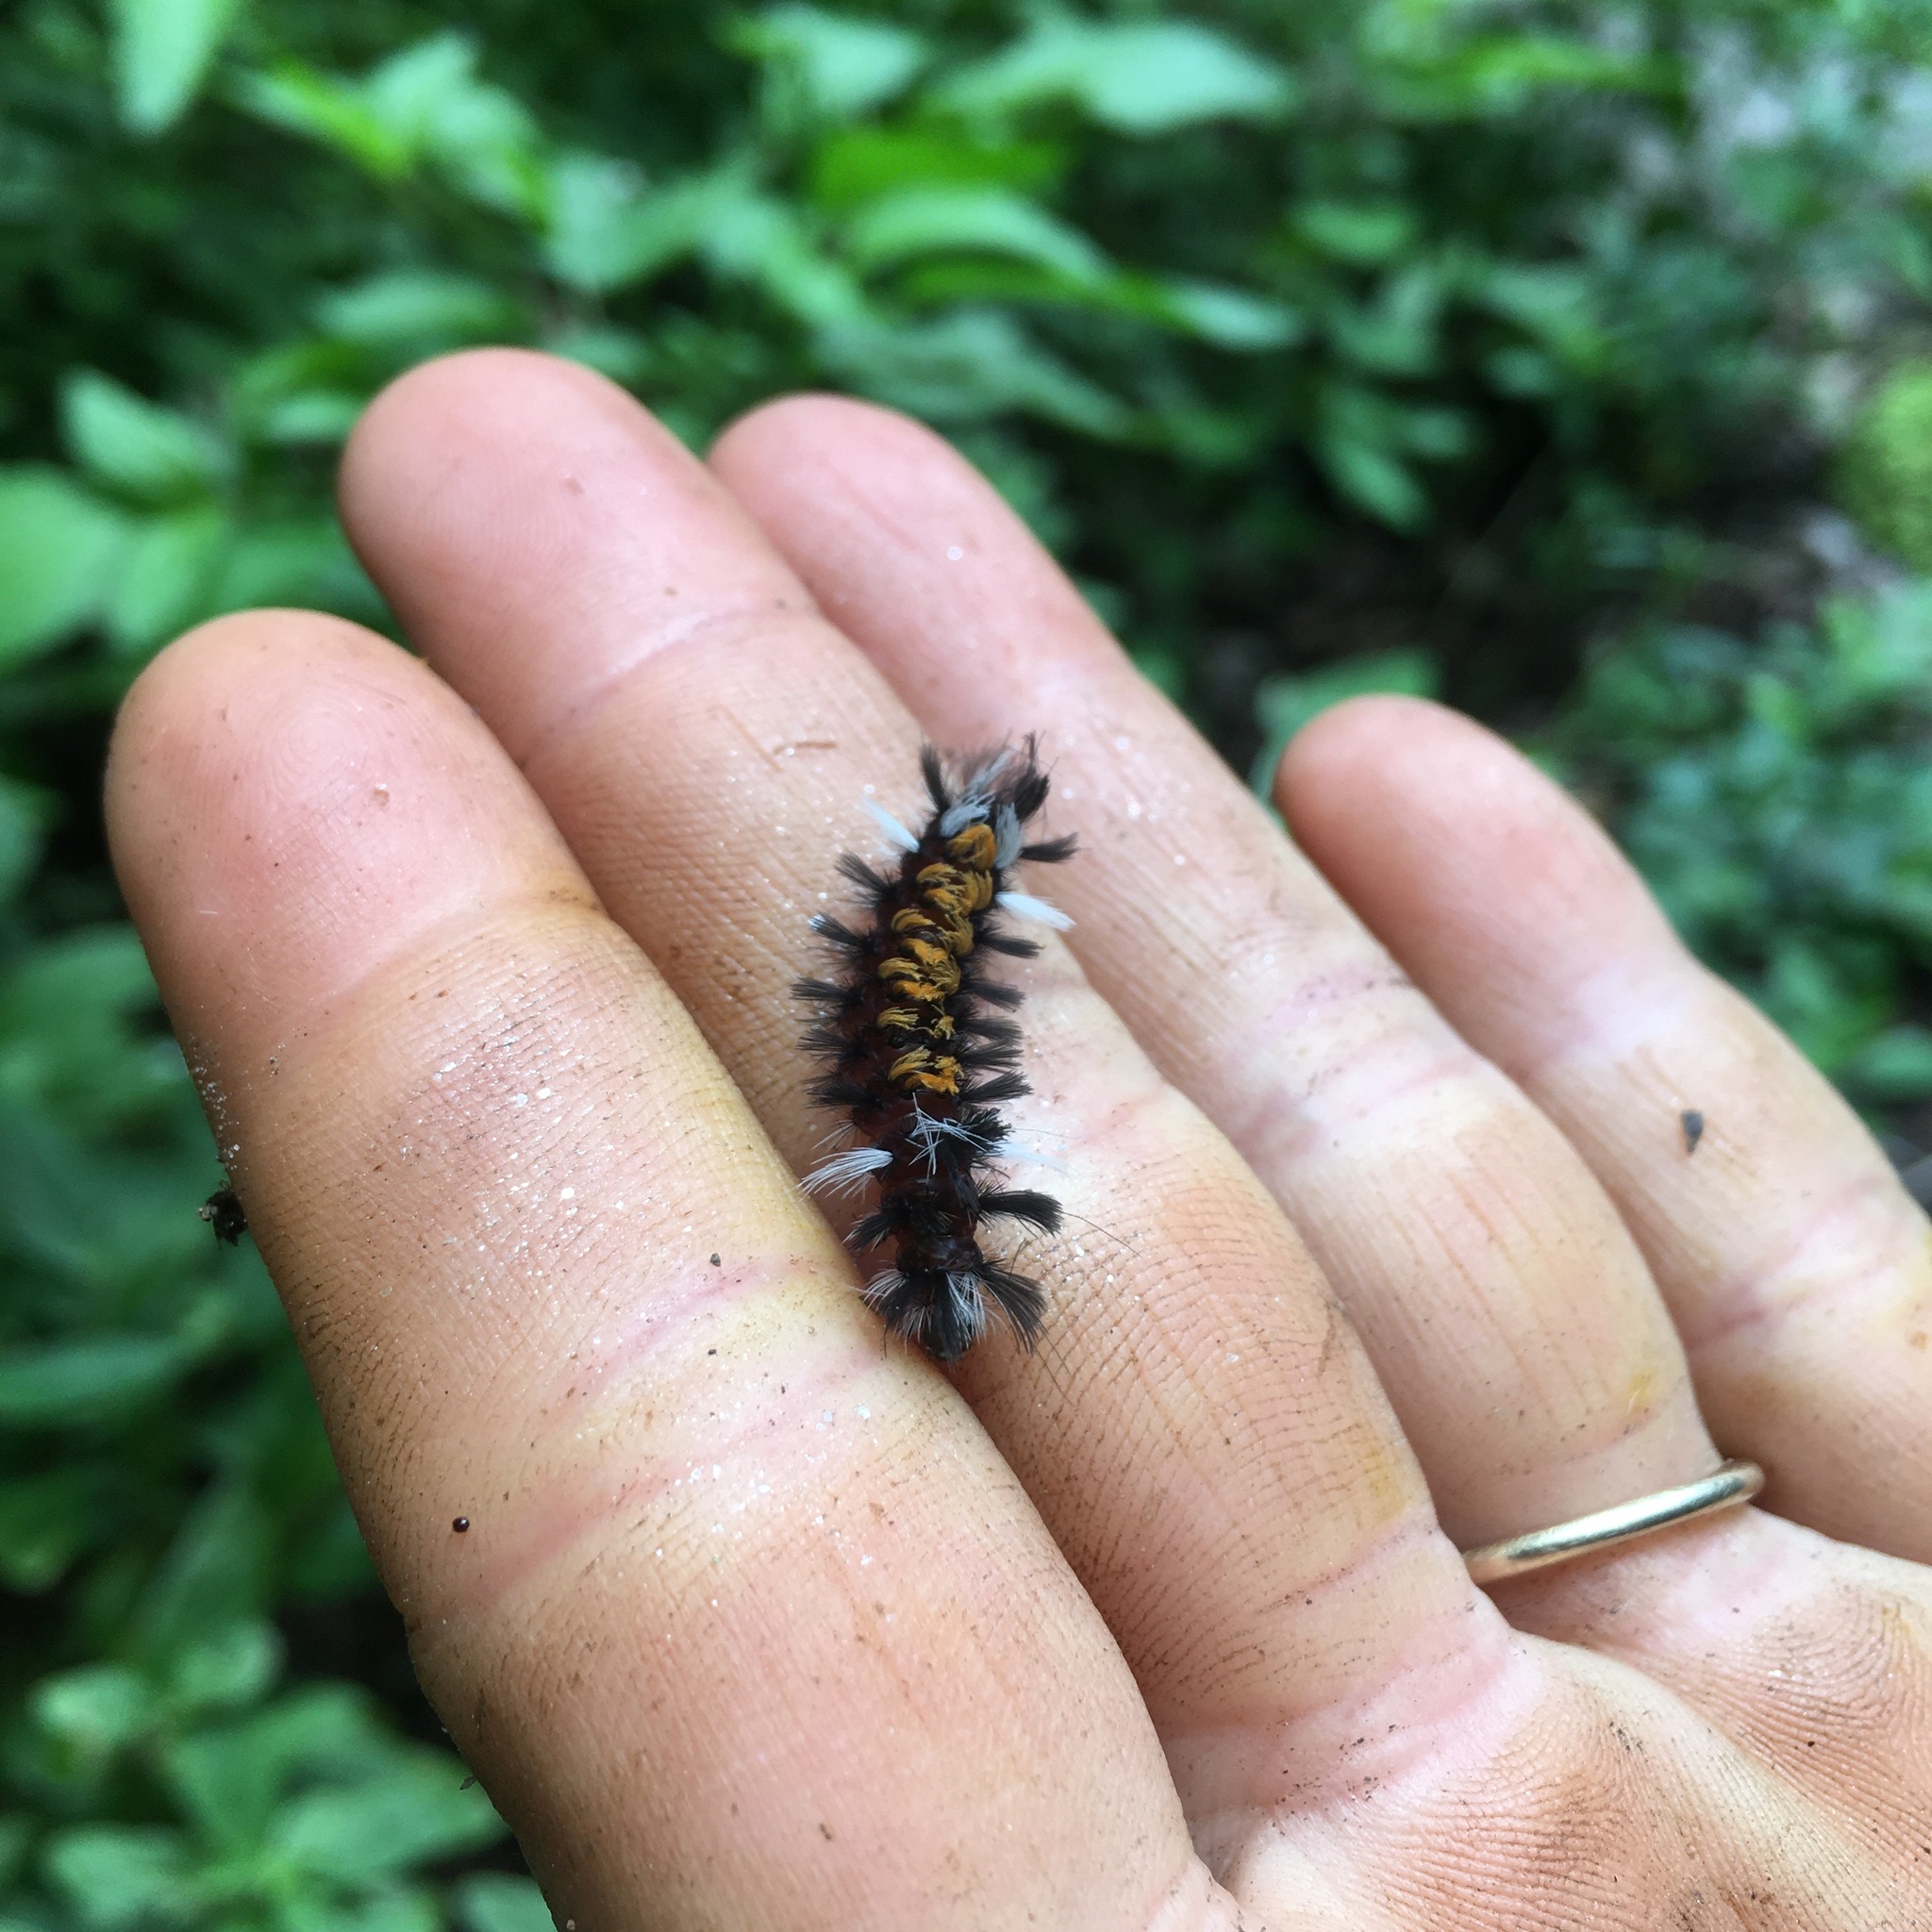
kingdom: Animalia
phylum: Arthropoda
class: Insecta
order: Lepidoptera
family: Erebidae
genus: Euchaetes
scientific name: Euchaetes egle
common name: Milkweed tussock moth
